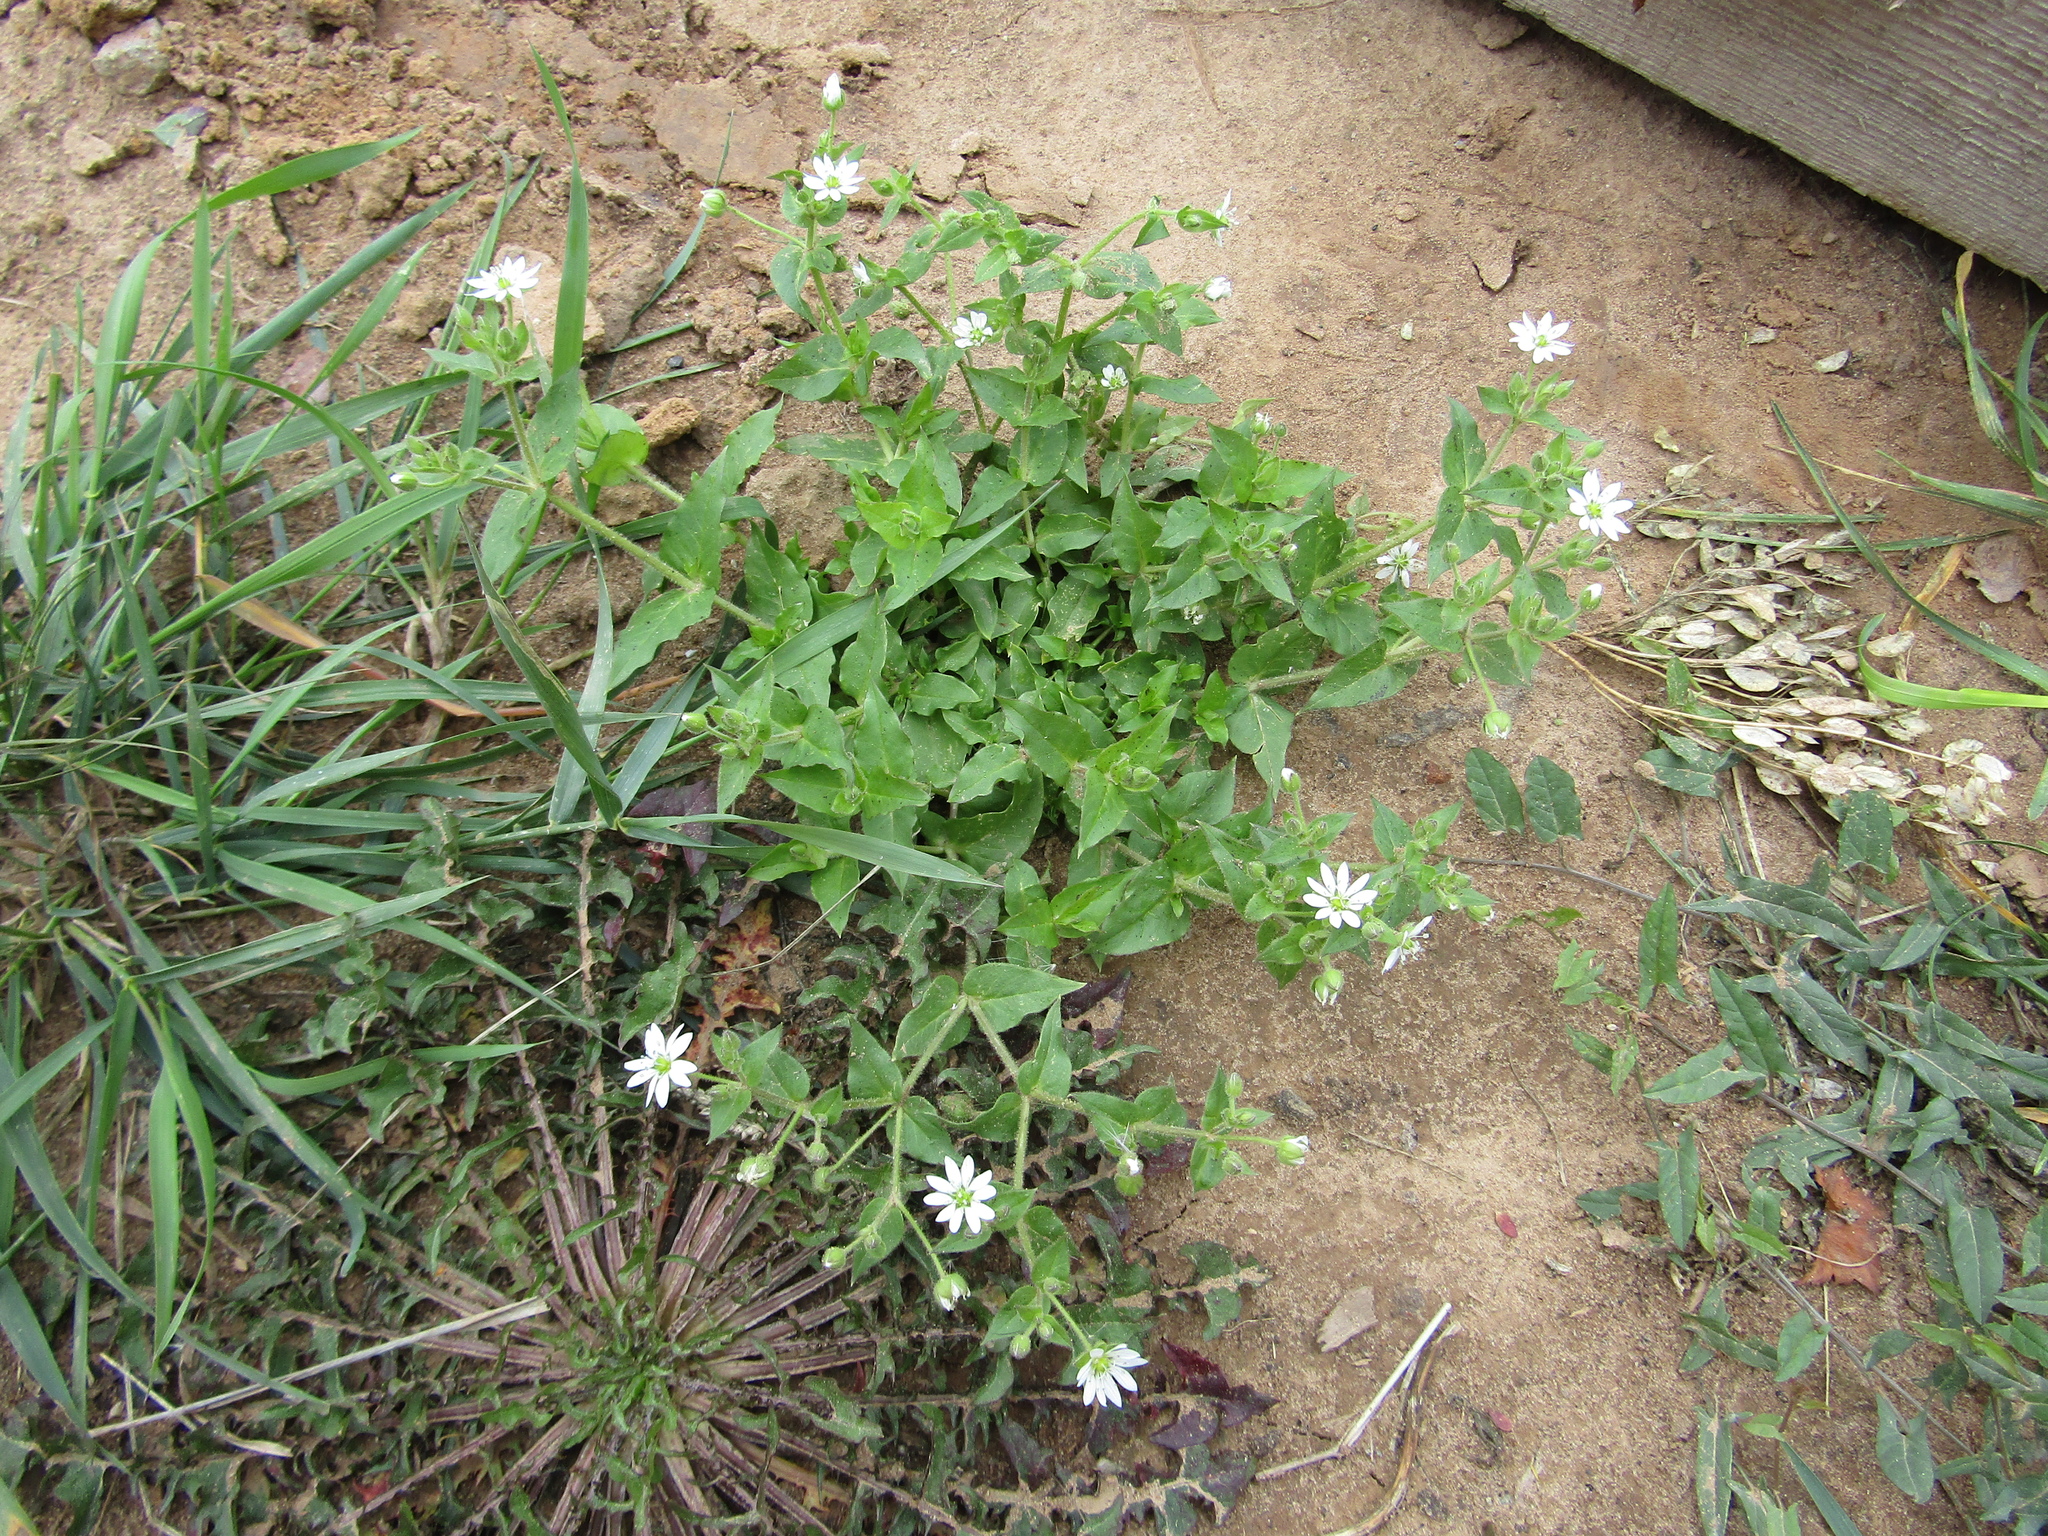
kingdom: Plantae
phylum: Tracheophyta
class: Magnoliopsida
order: Caryophyllales
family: Caryophyllaceae
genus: Stellaria
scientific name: Stellaria aquatica
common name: Water chickweed
